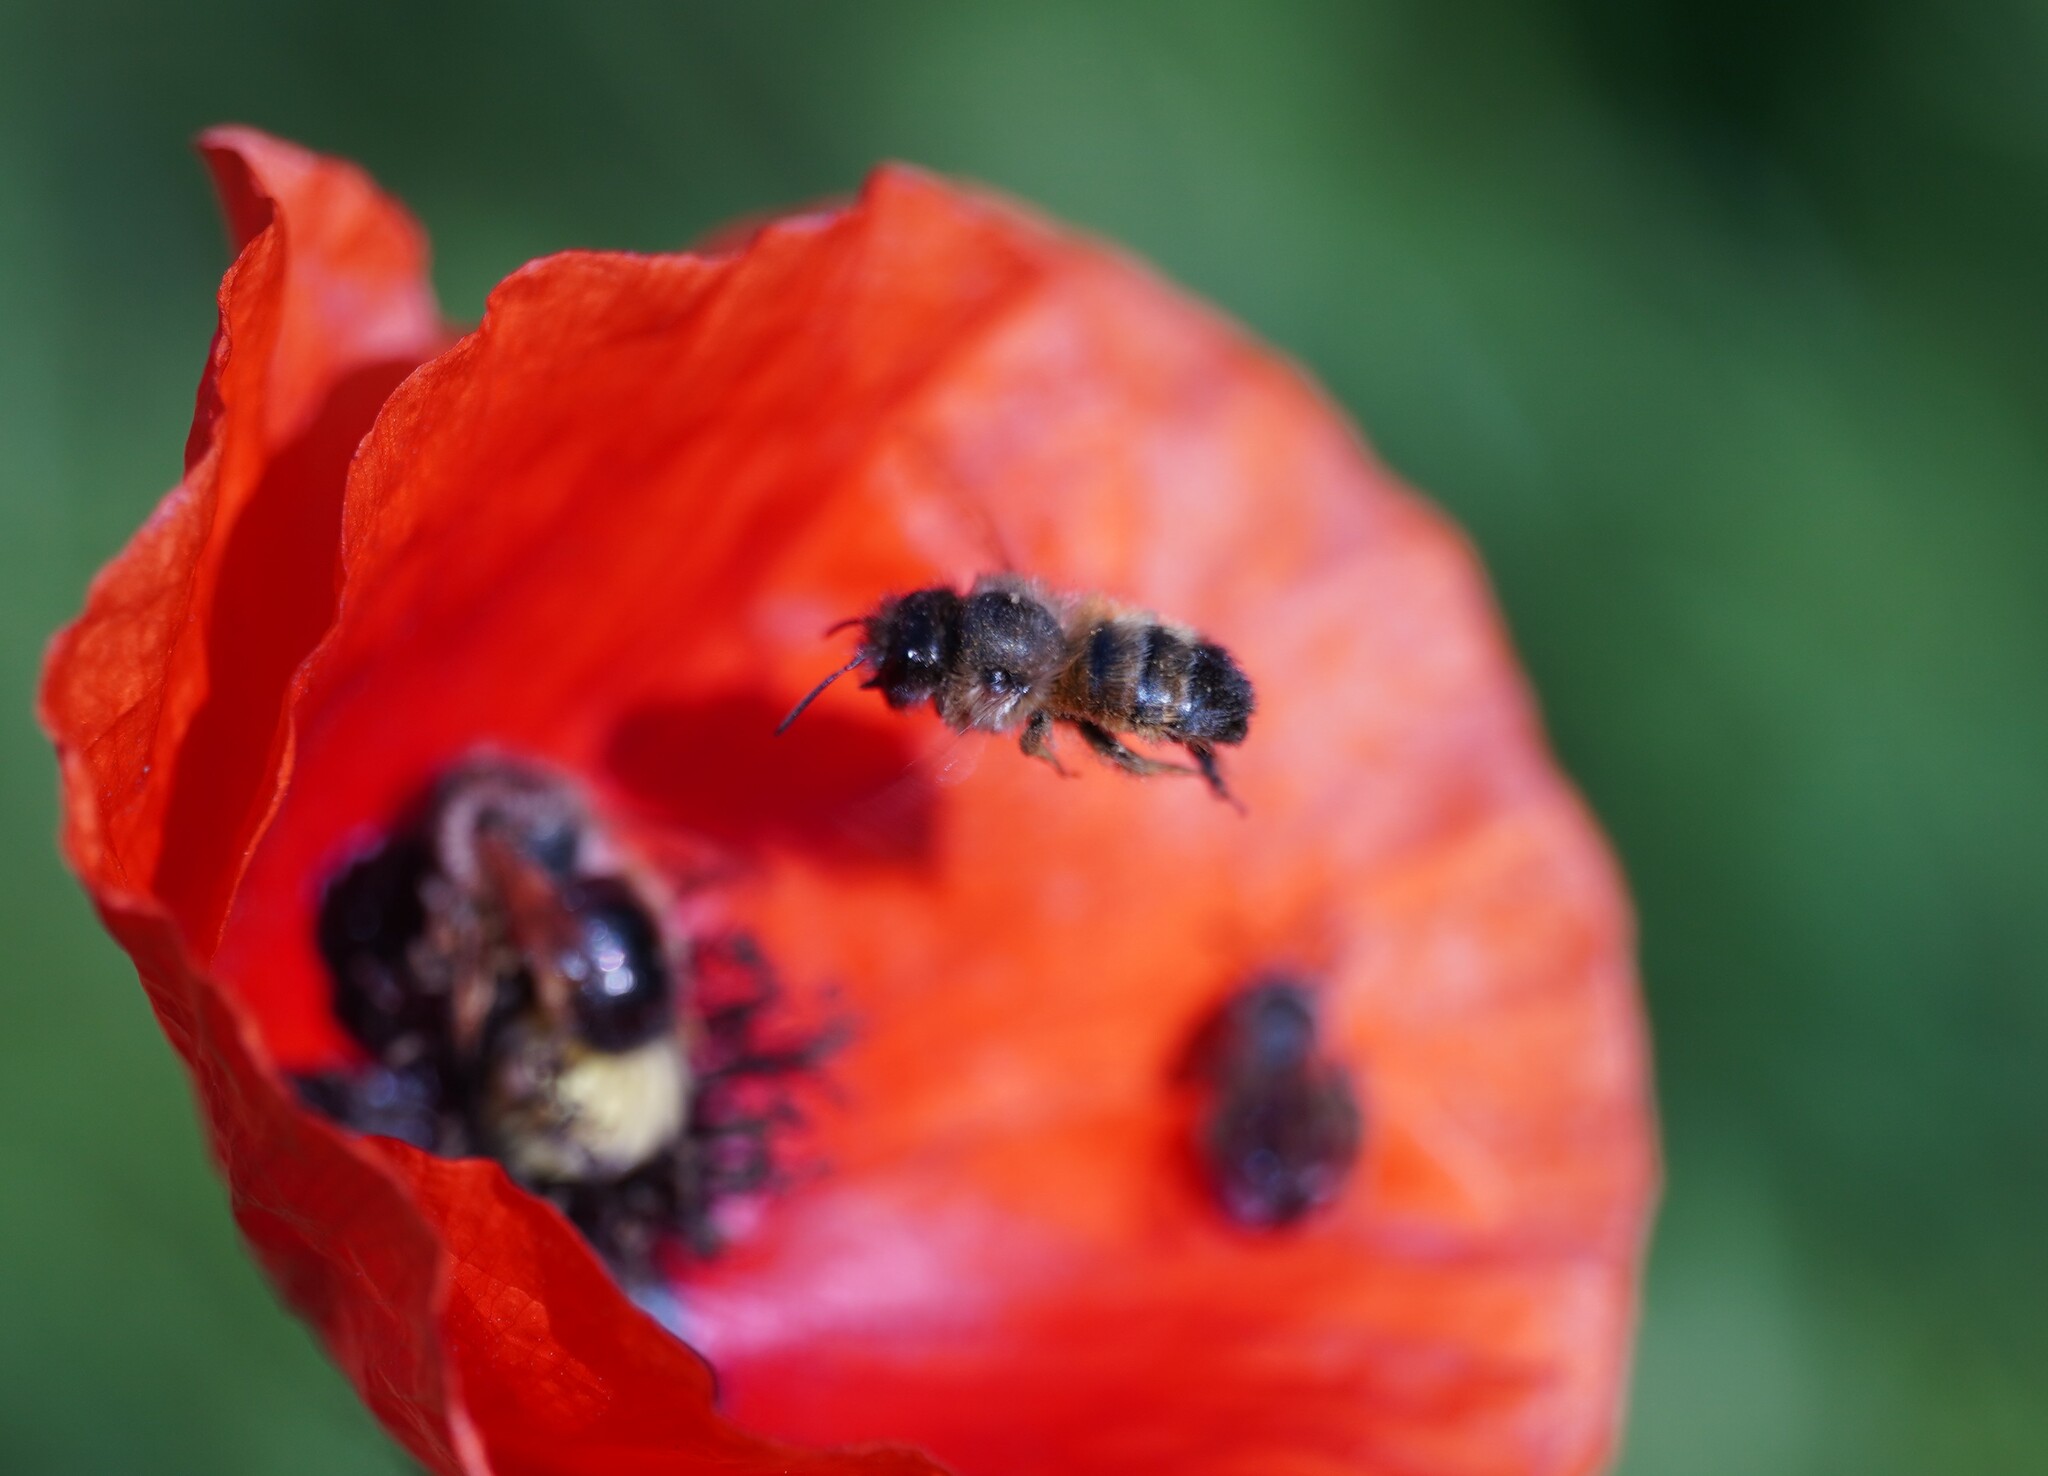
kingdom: Animalia
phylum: Arthropoda
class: Insecta
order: Hymenoptera
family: Megachilidae
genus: Osmia
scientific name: Osmia bicornis
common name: Red mason bee
